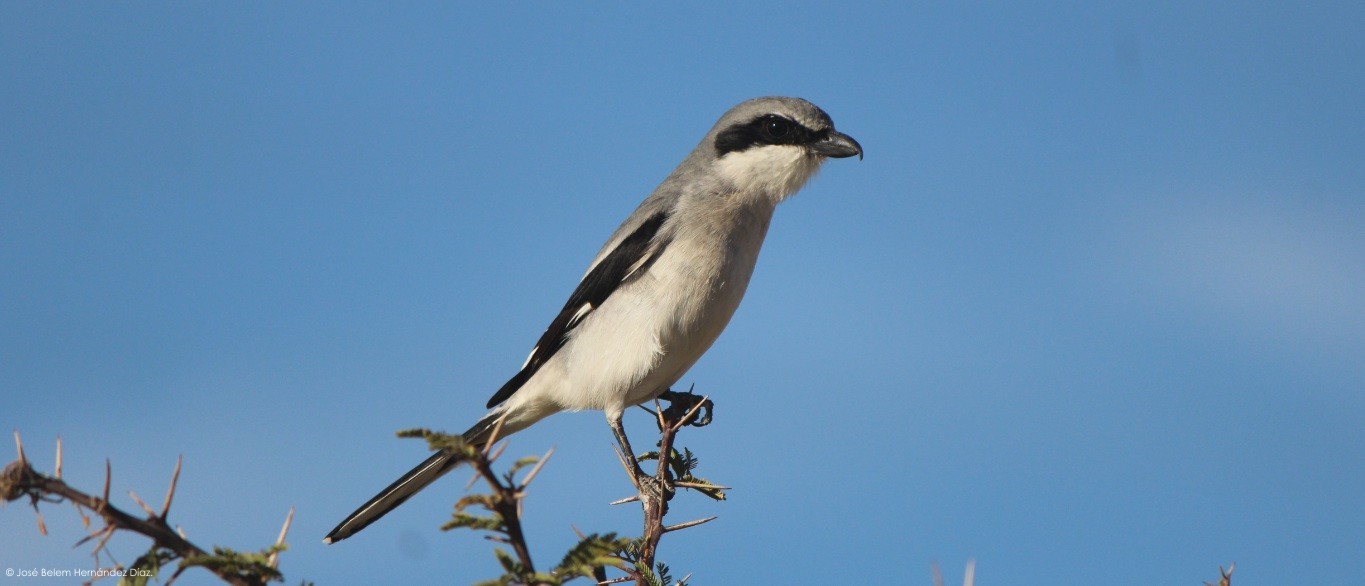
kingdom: Animalia
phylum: Chordata
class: Aves
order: Passeriformes
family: Laniidae
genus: Lanius
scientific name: Lanius ludovicianus
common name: Loggerhead shrike
